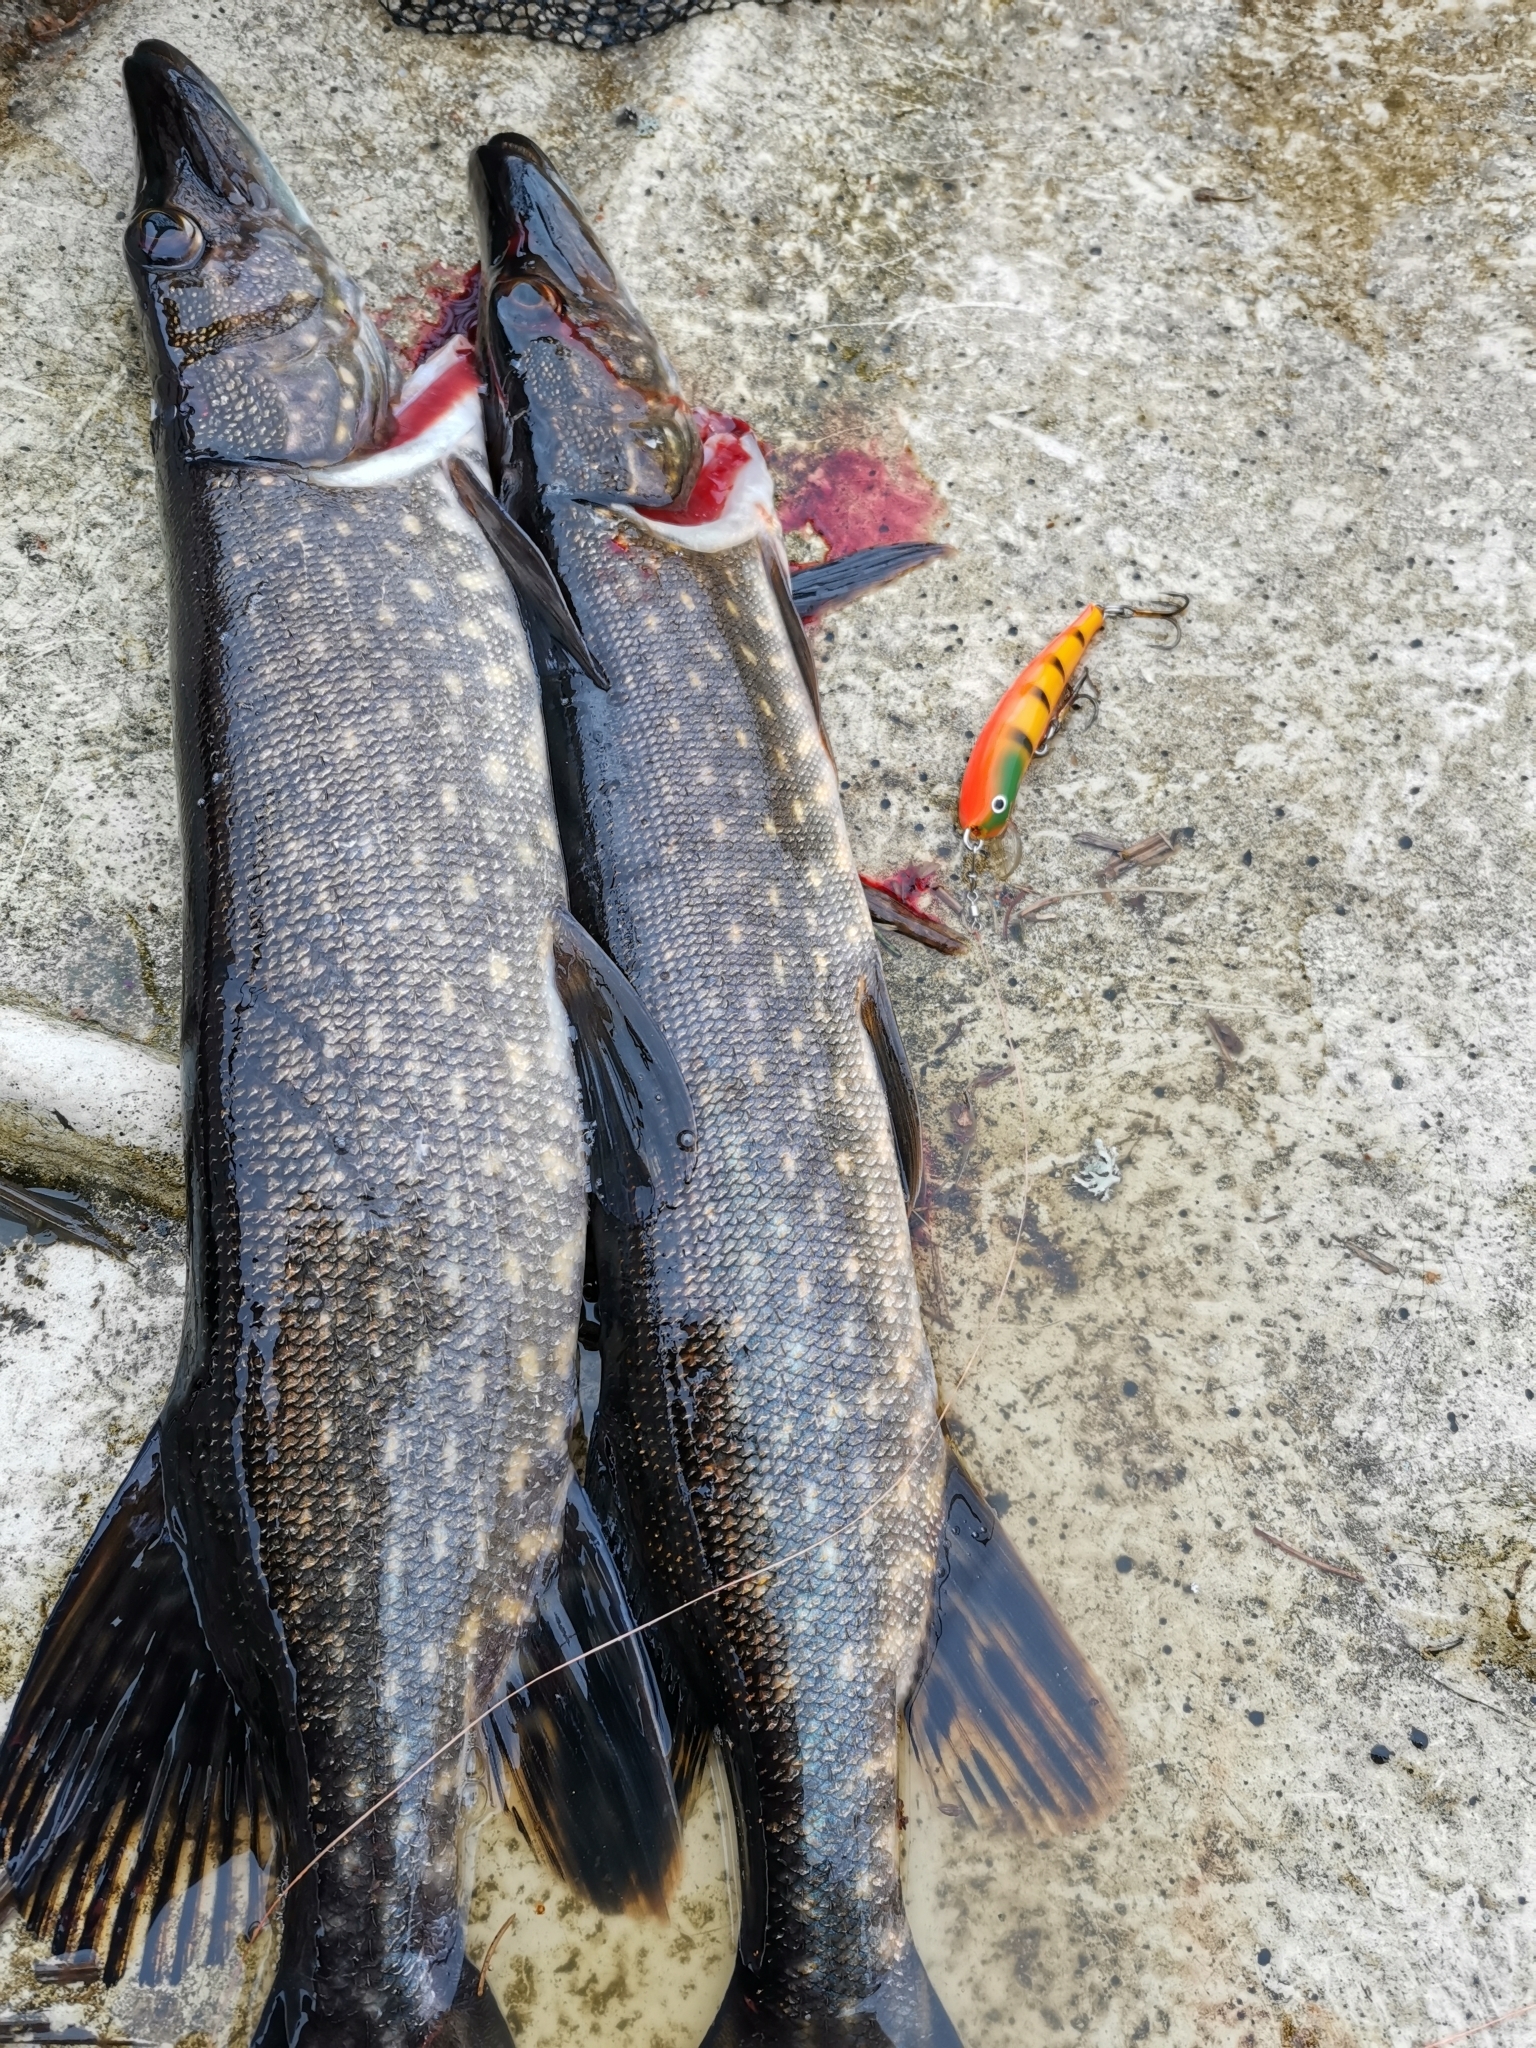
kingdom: Animalia
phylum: Chordata
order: Esociformes
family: Esocidae
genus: Esox
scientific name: Esox lucius
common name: Northern pike
